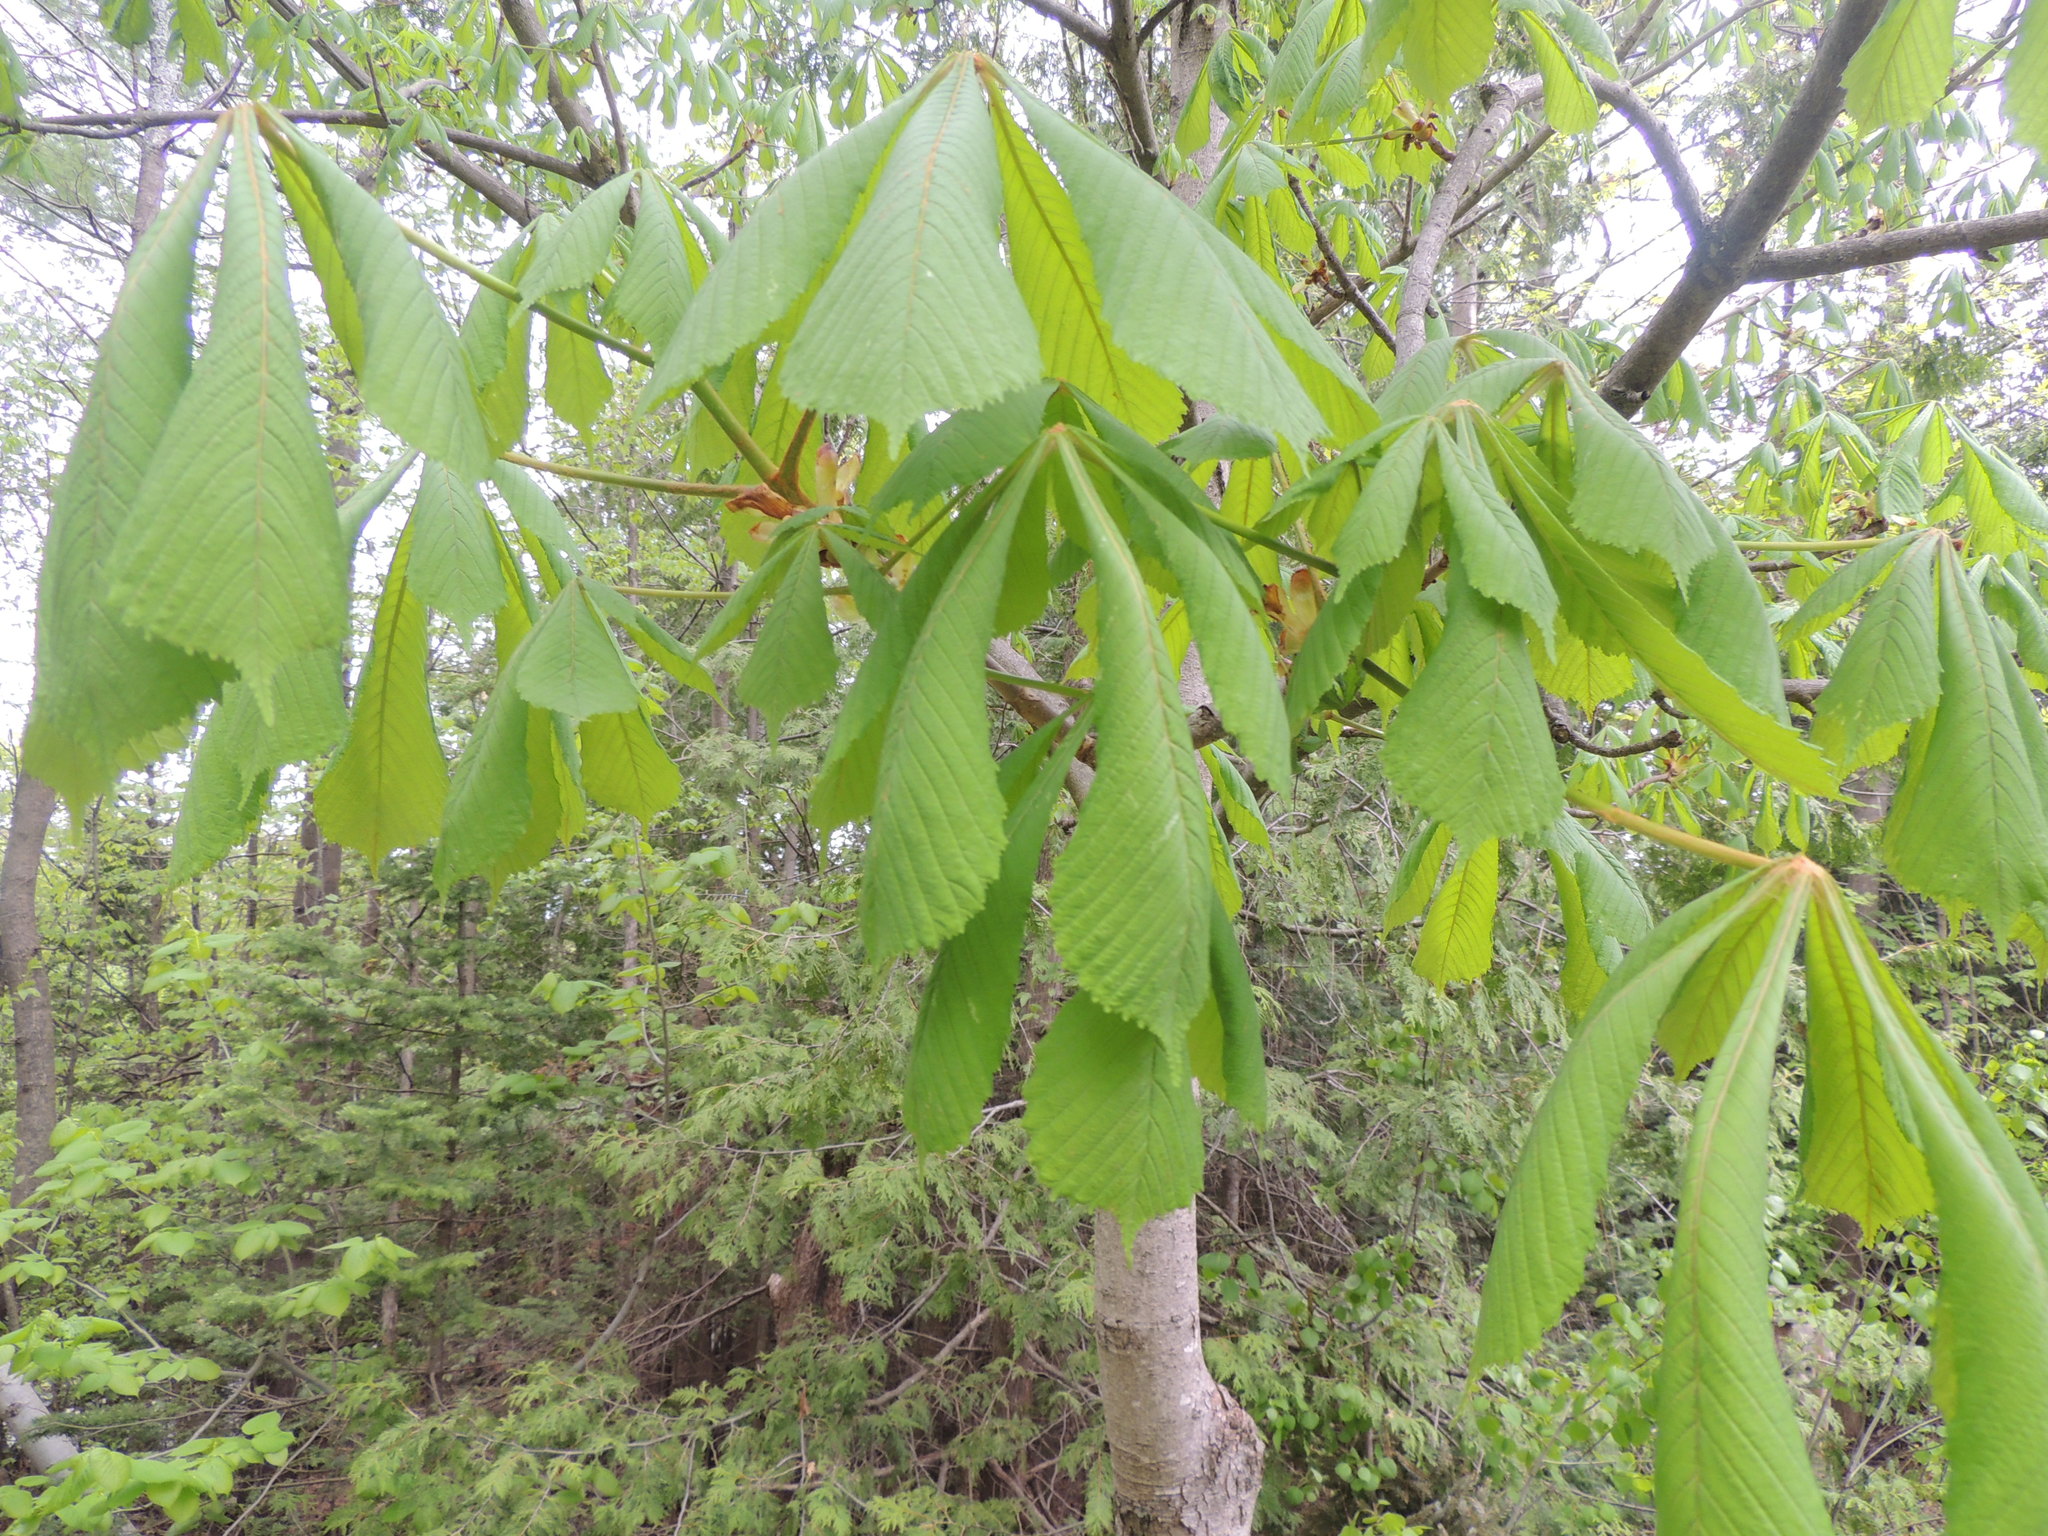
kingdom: Plantae
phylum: Tracheophyta
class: Magnoliopsida
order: Sapindales
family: Sapindaceae
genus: Aesculus
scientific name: Aesculus hippocastanum
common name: Horse-chestnut
